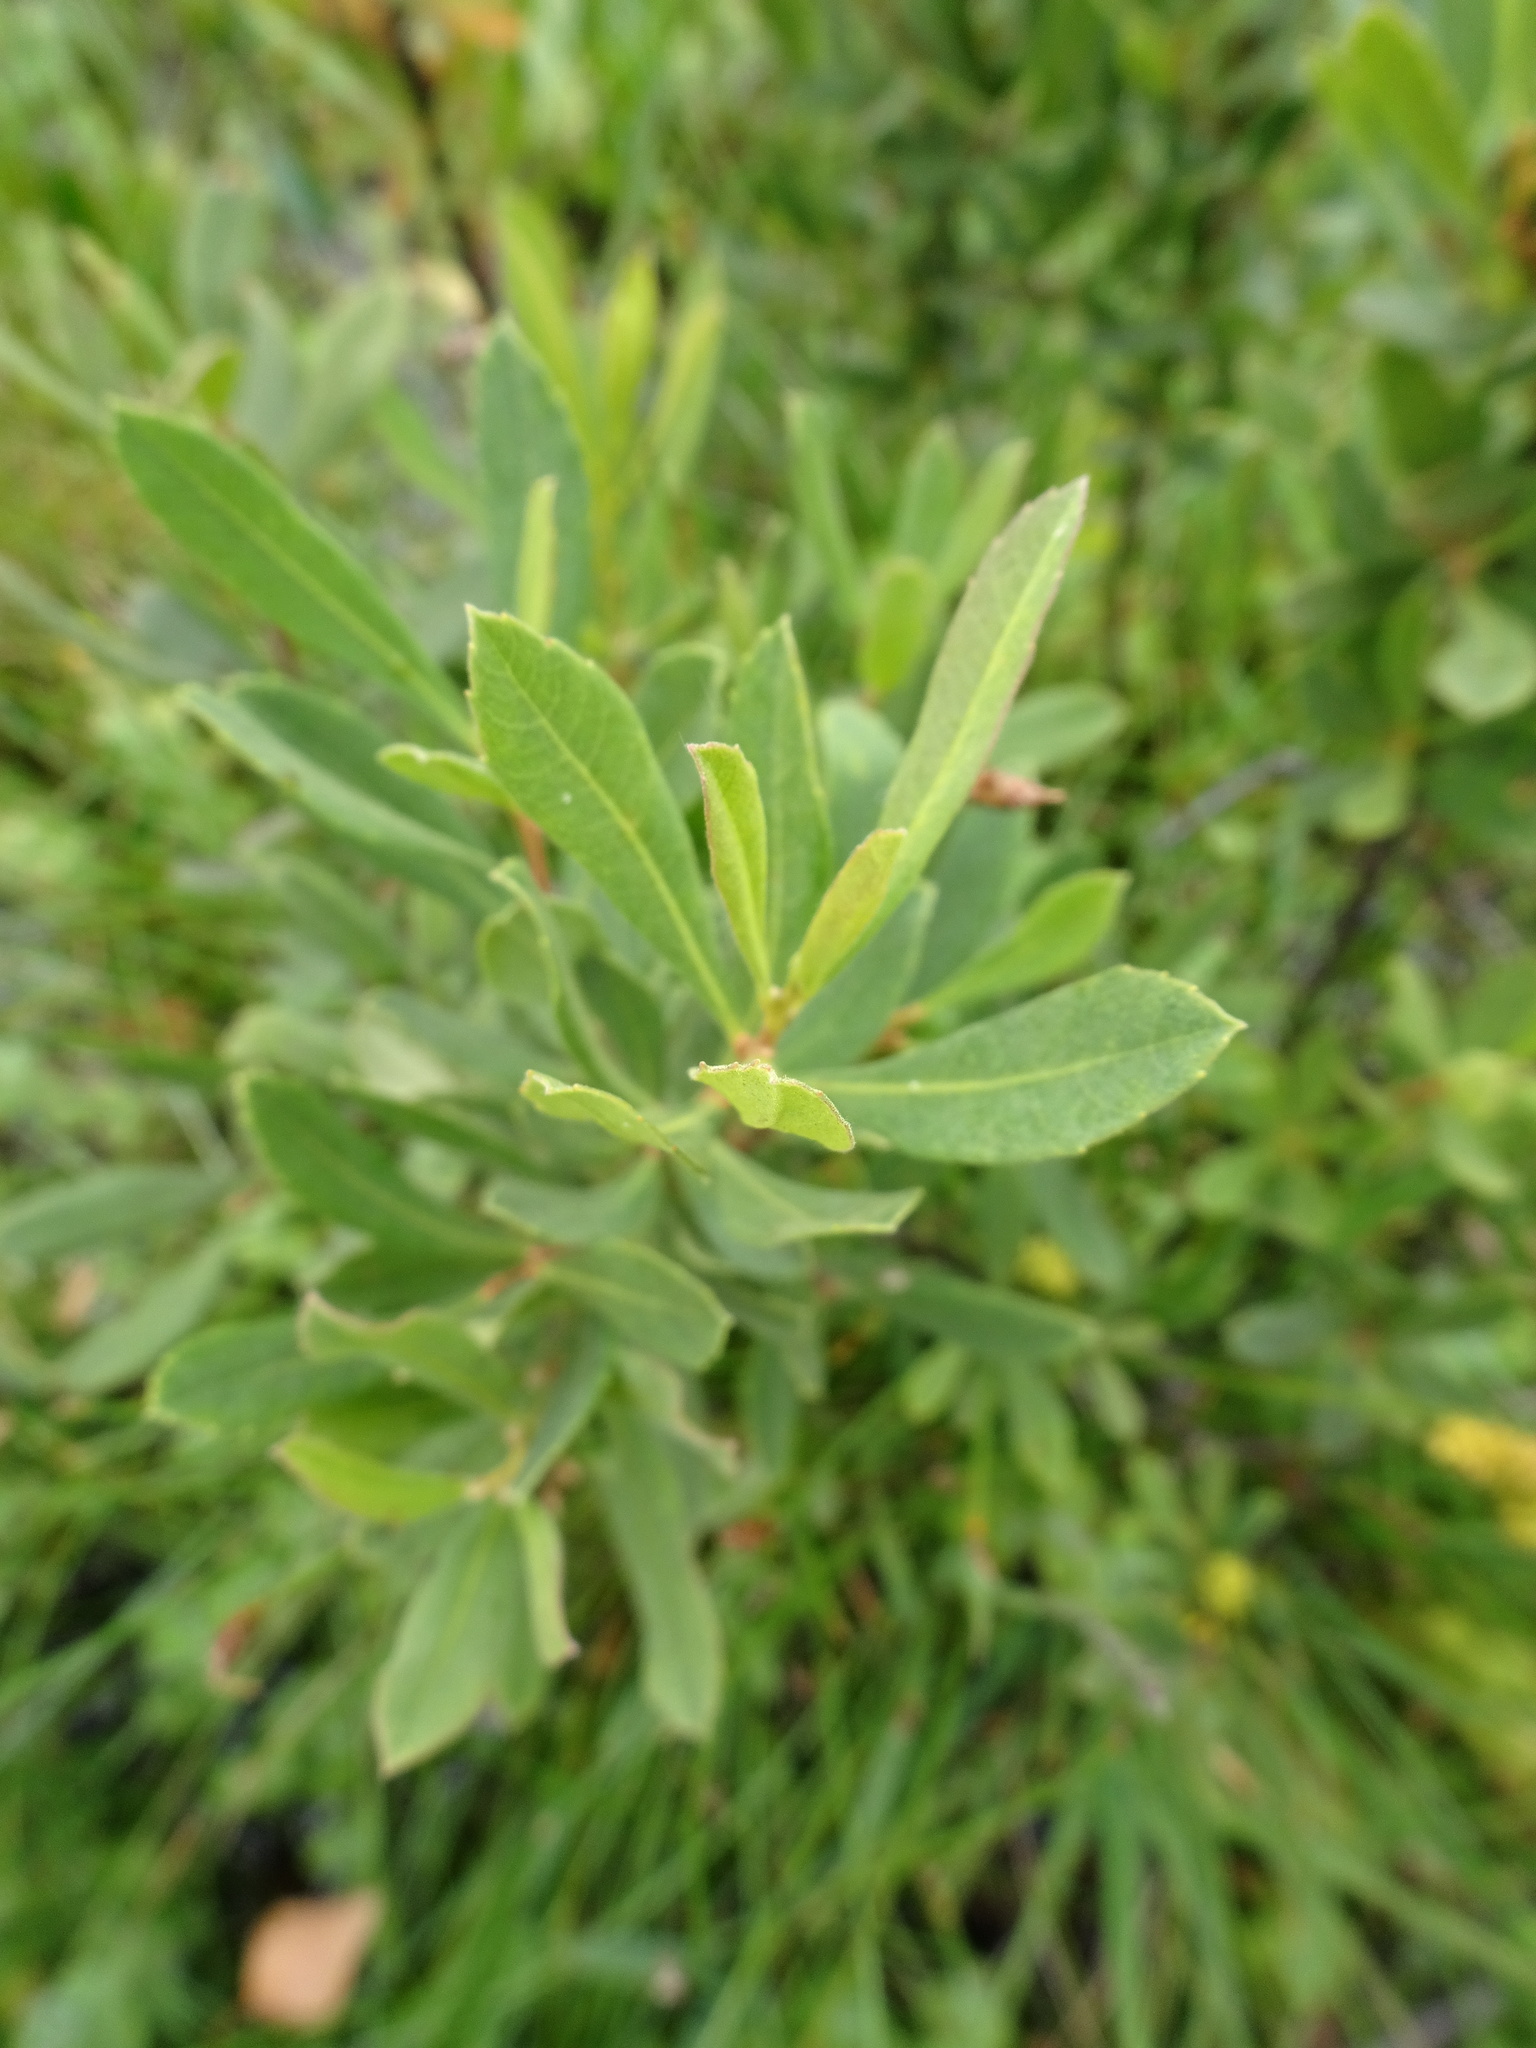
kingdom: Plantae
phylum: Tracheophyta
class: Magnoliopsida
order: Fagales
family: Myricaceae
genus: Myrica
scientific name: Myrica gale
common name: Sweet gale
